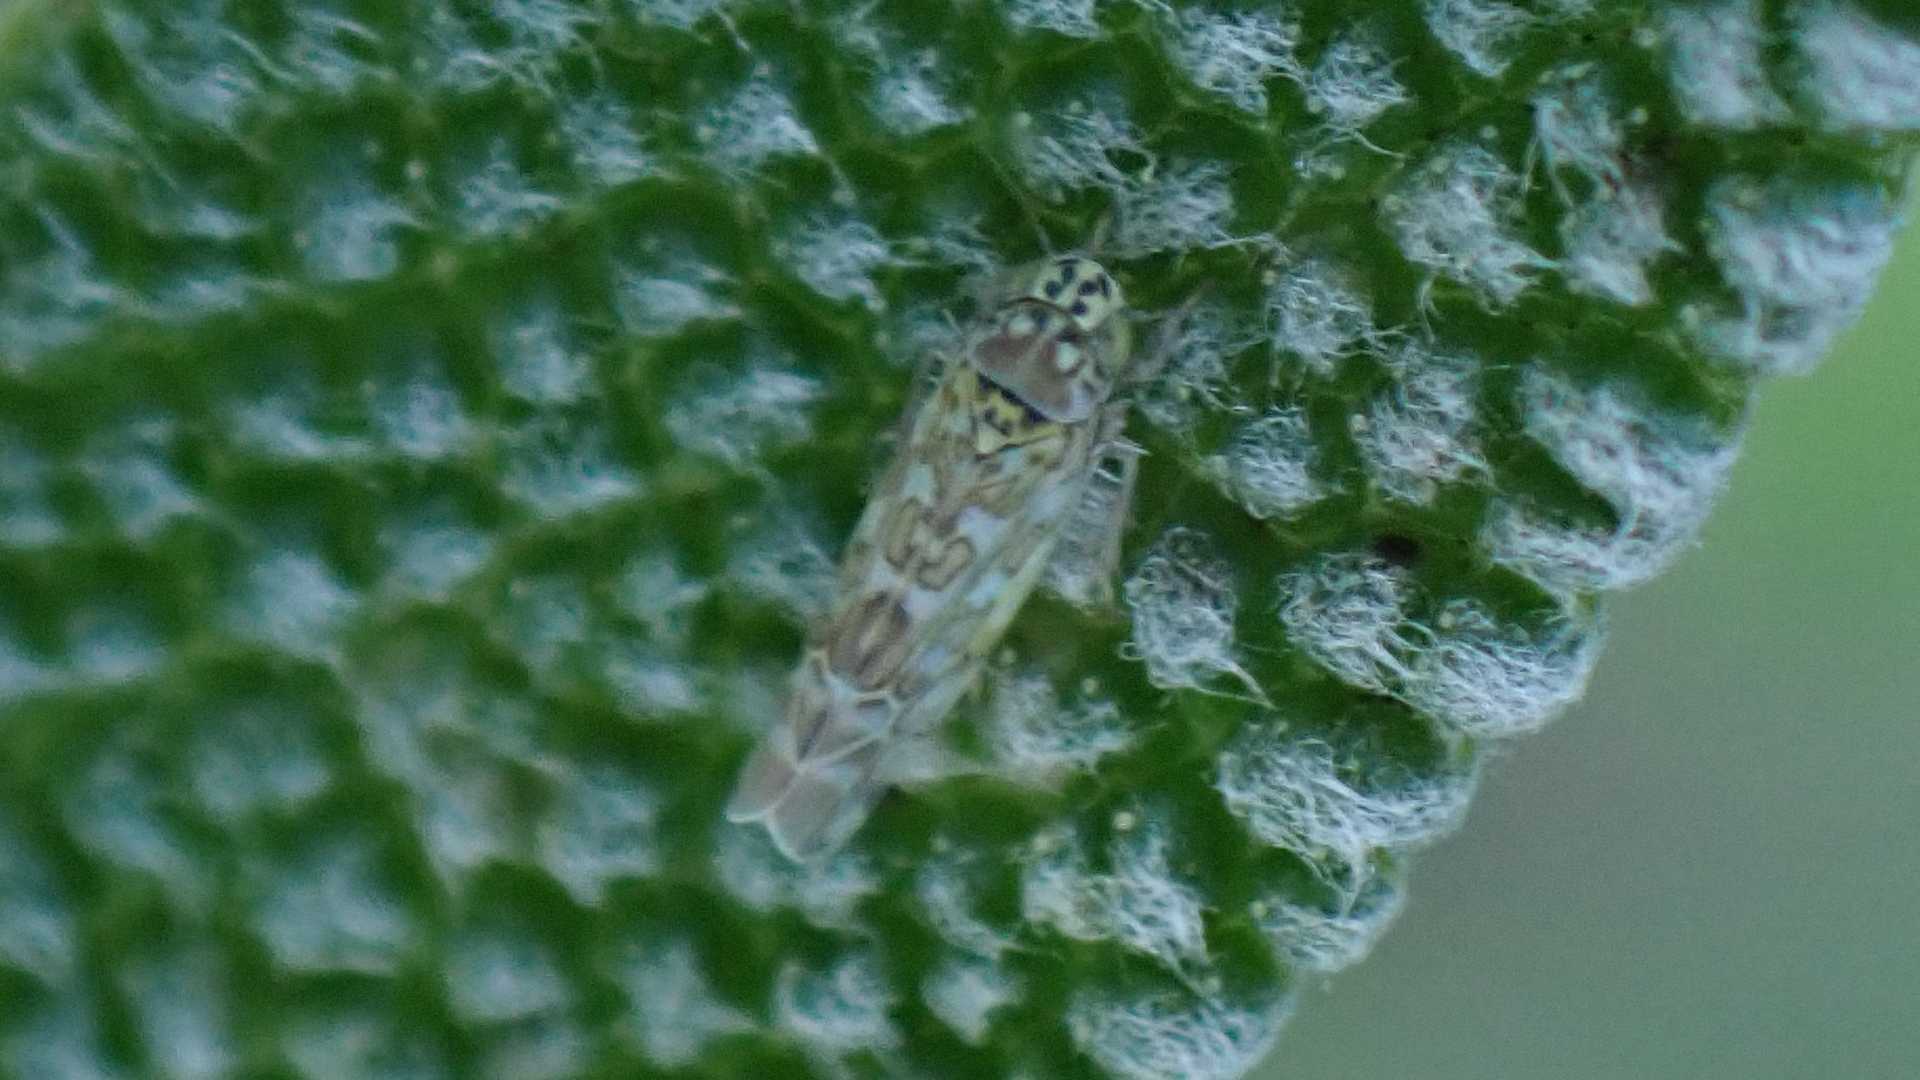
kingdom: Animalia
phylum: Arthropoda
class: Insecta
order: Hemiptera
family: Cicadellidae
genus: Eupteryx
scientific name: Eupteryx decemnotata
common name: Ligurian leafhopper
